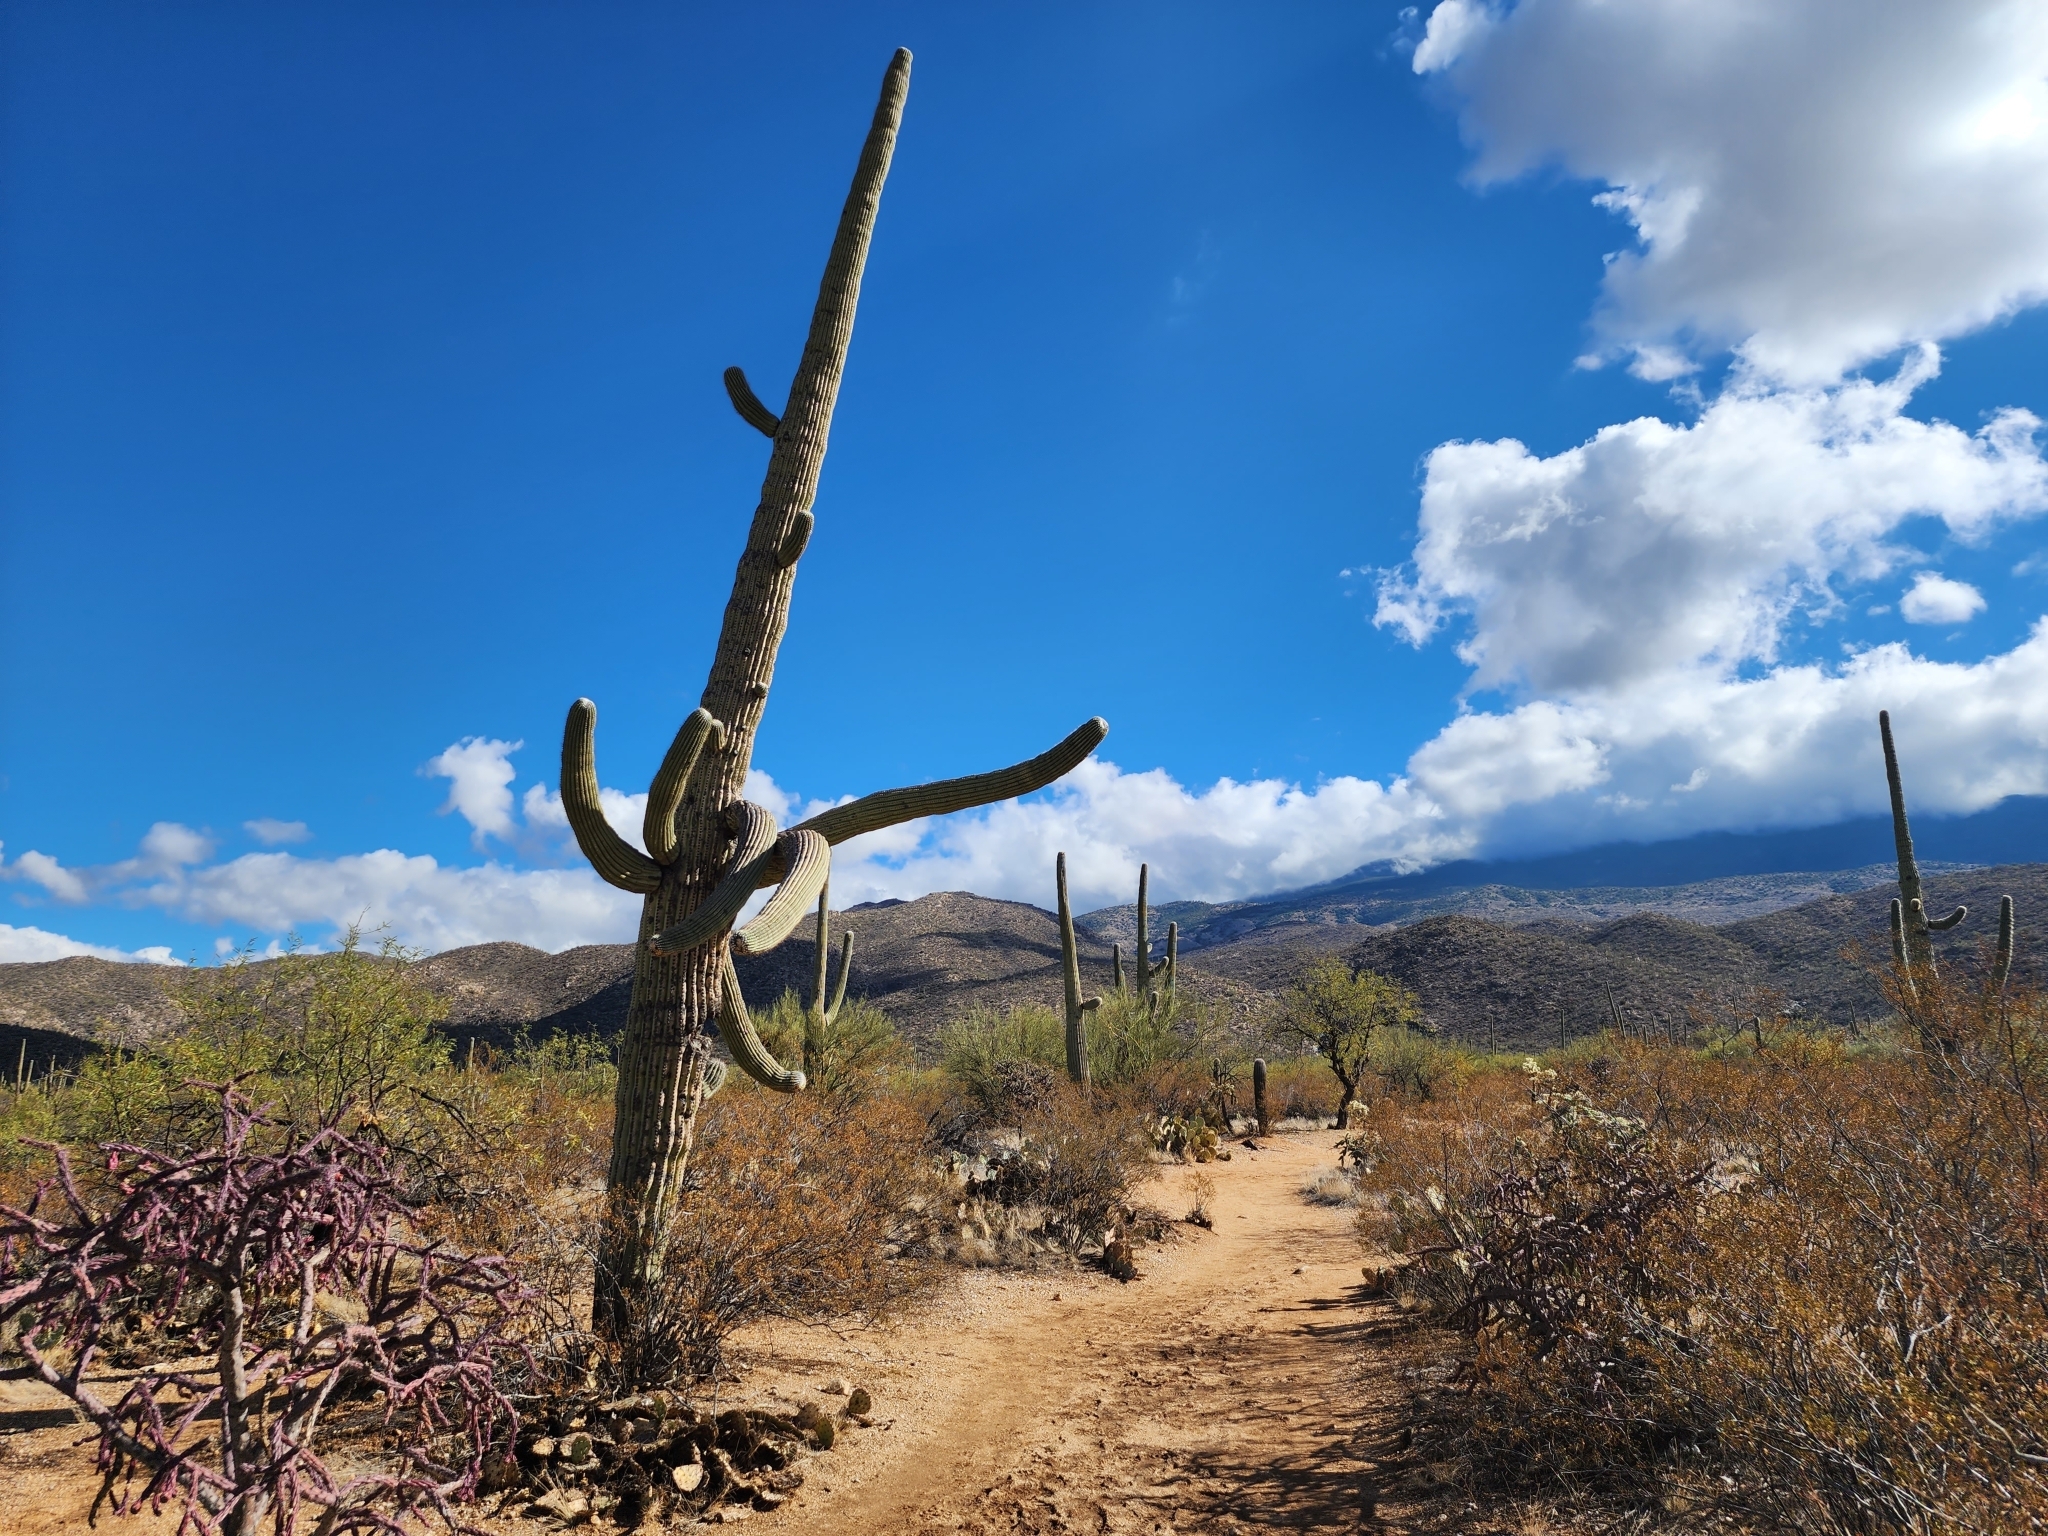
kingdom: Plantae
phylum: Tracheophyta
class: Magnoliopsida
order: Caryophyllales
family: Cactaceae
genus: Carnegiea
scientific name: Carnegiea gigantea
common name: Saguaro
